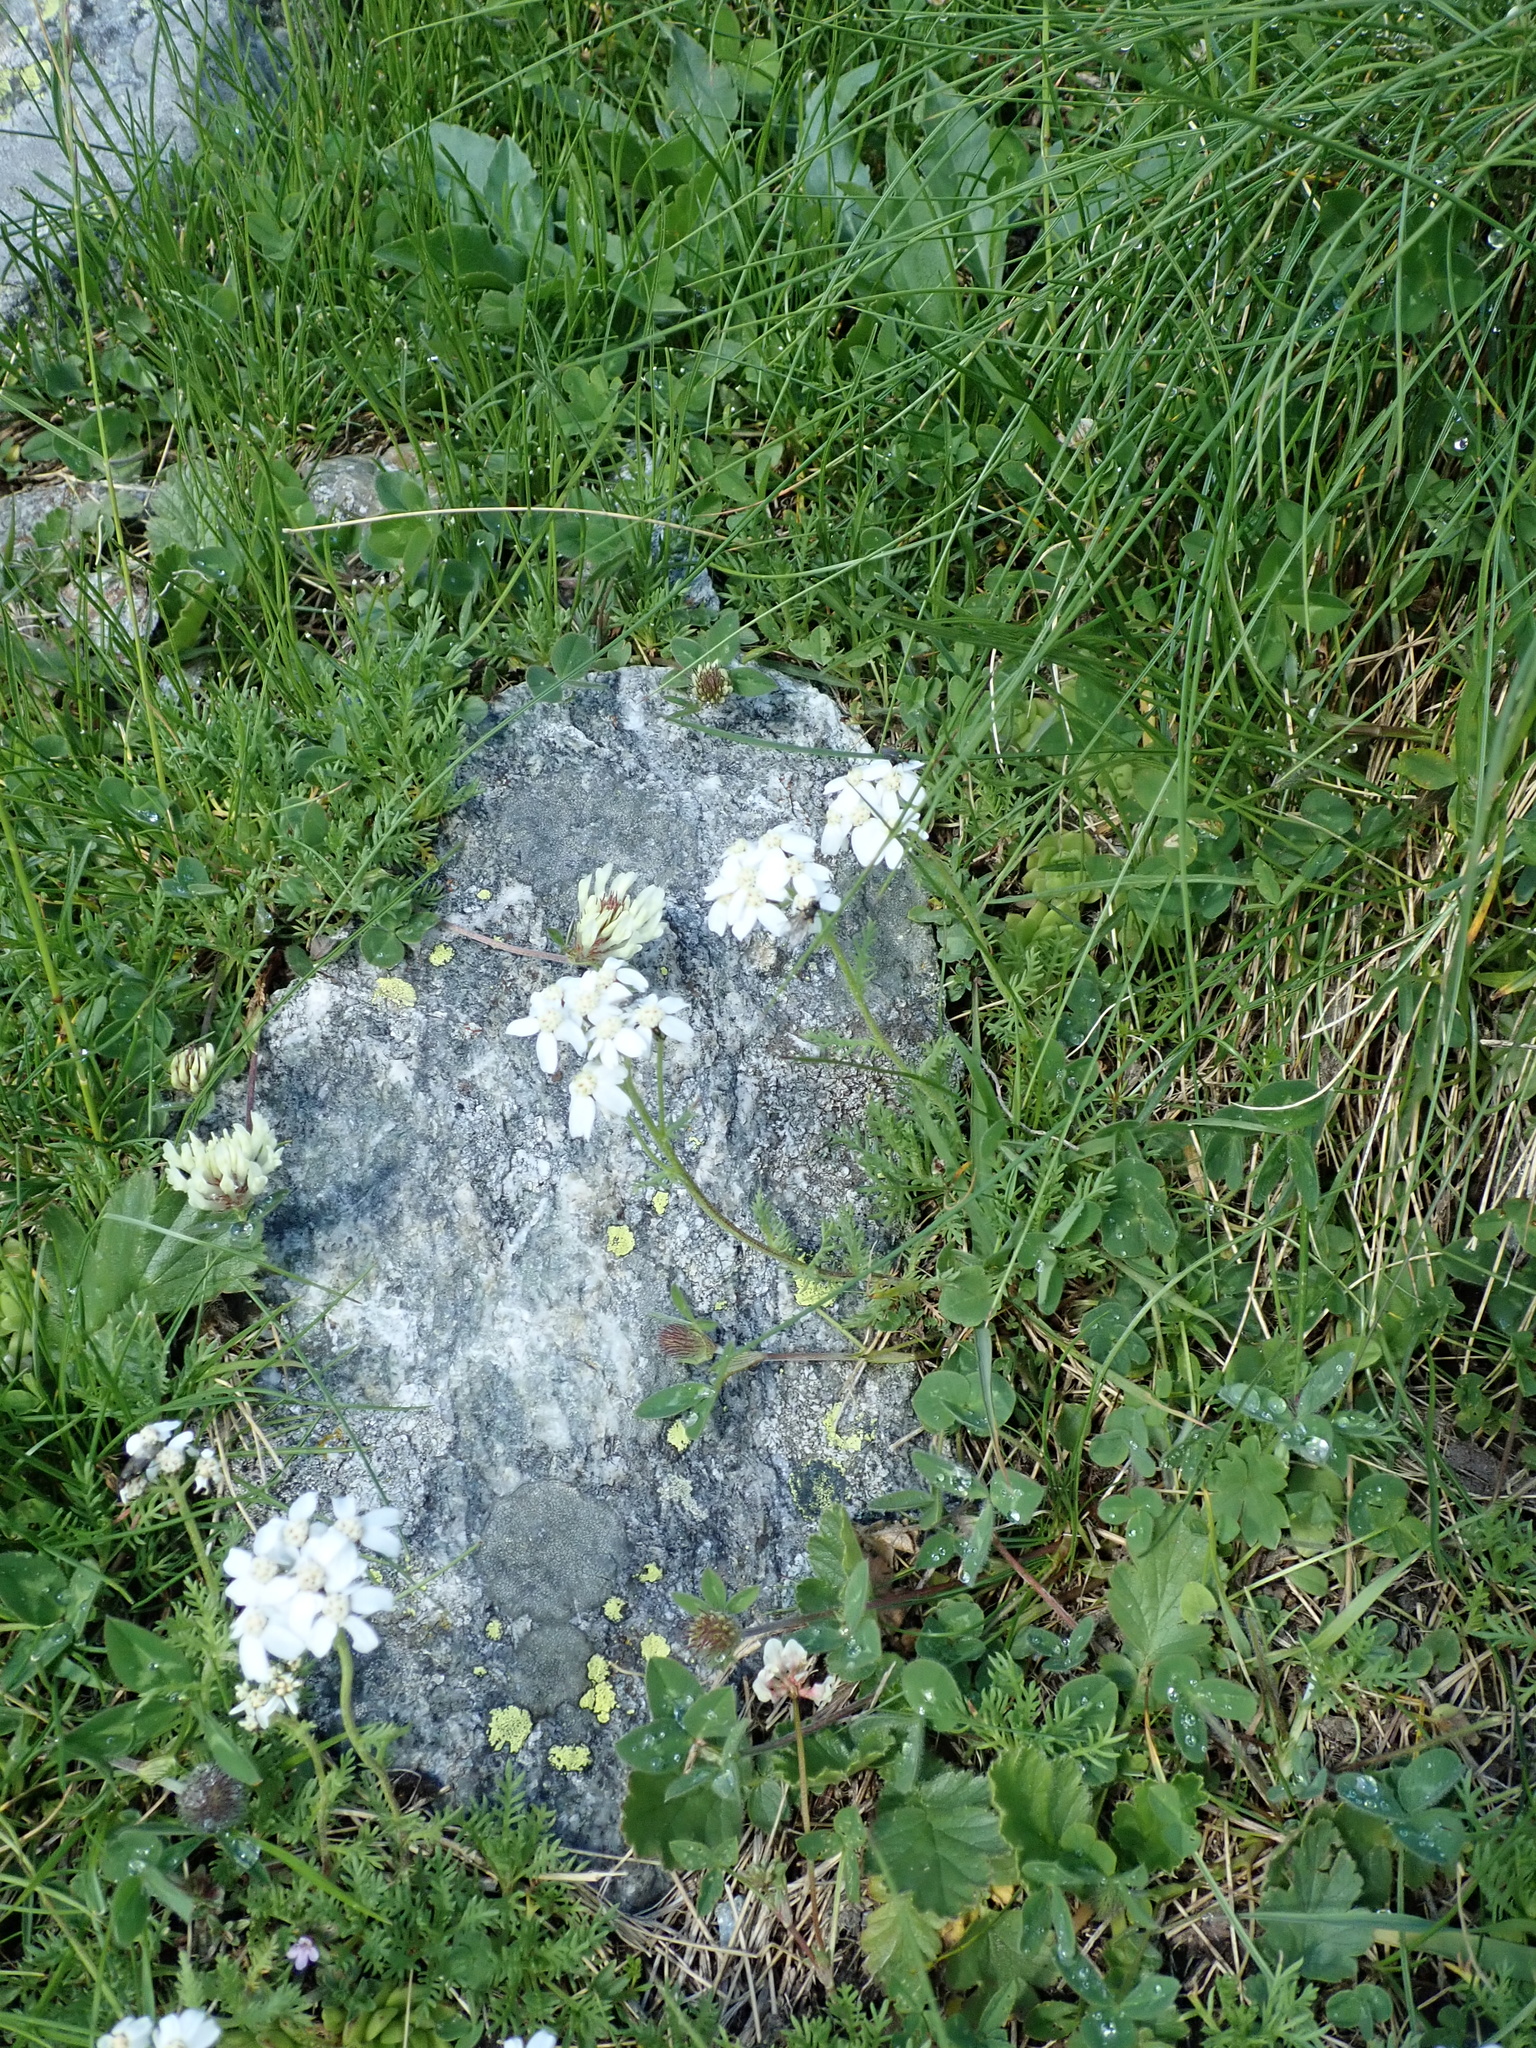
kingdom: Plantae
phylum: Tracheophyta
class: Magnoliopsida
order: Asterales
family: Asteraceae
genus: Achillea
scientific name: Achillea erba-rotta
